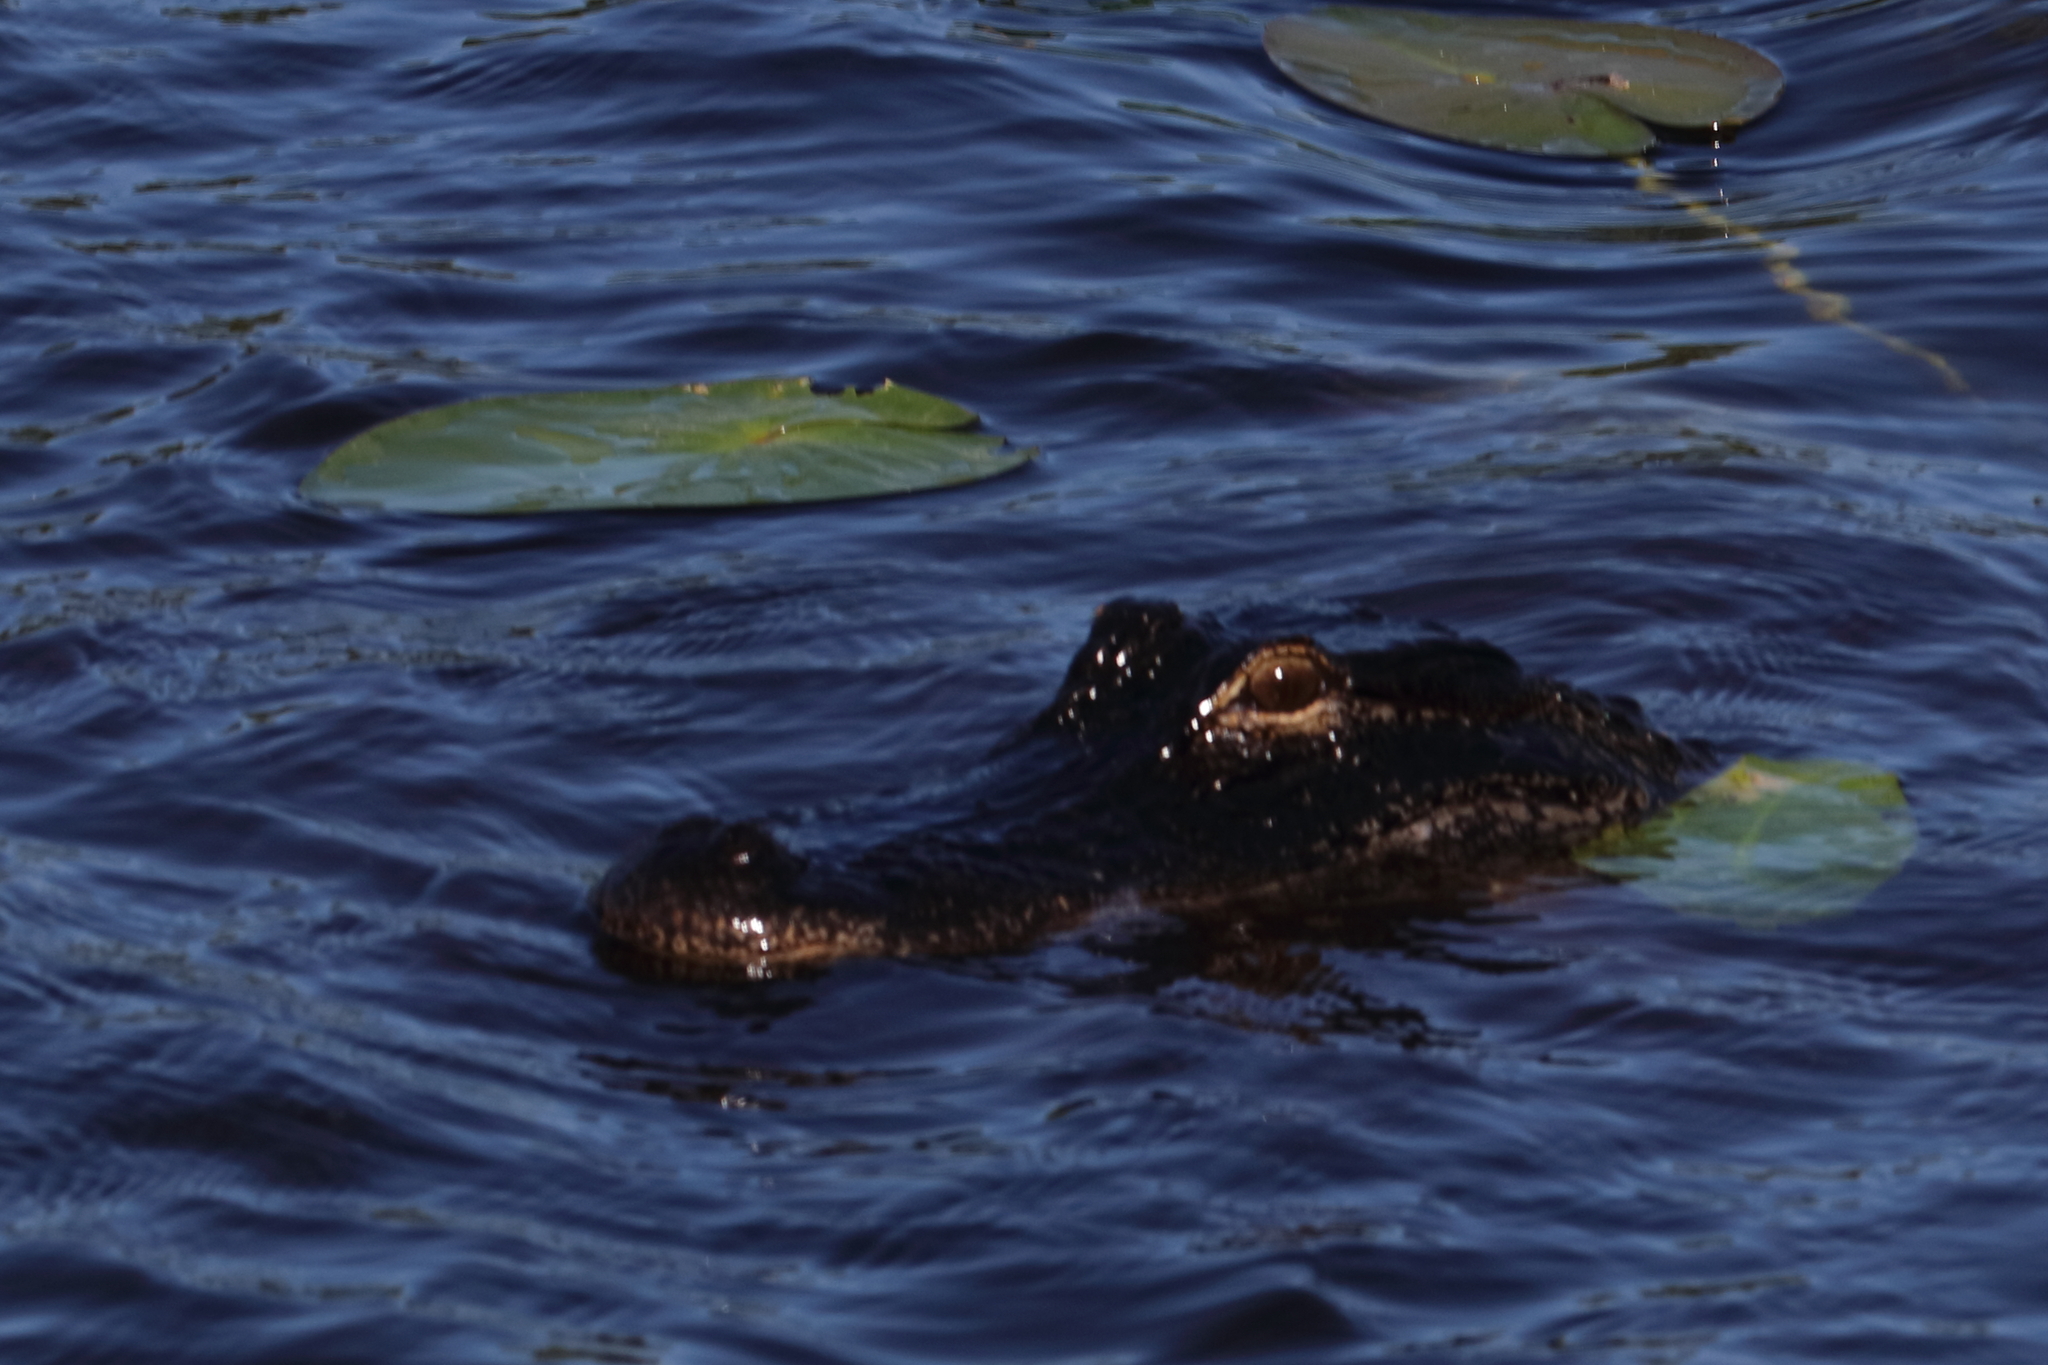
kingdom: Animalia
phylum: Chordata
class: Crocodylia
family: Alligatoridae
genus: Alligator
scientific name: Alligator mississippiensis
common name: American alligator
